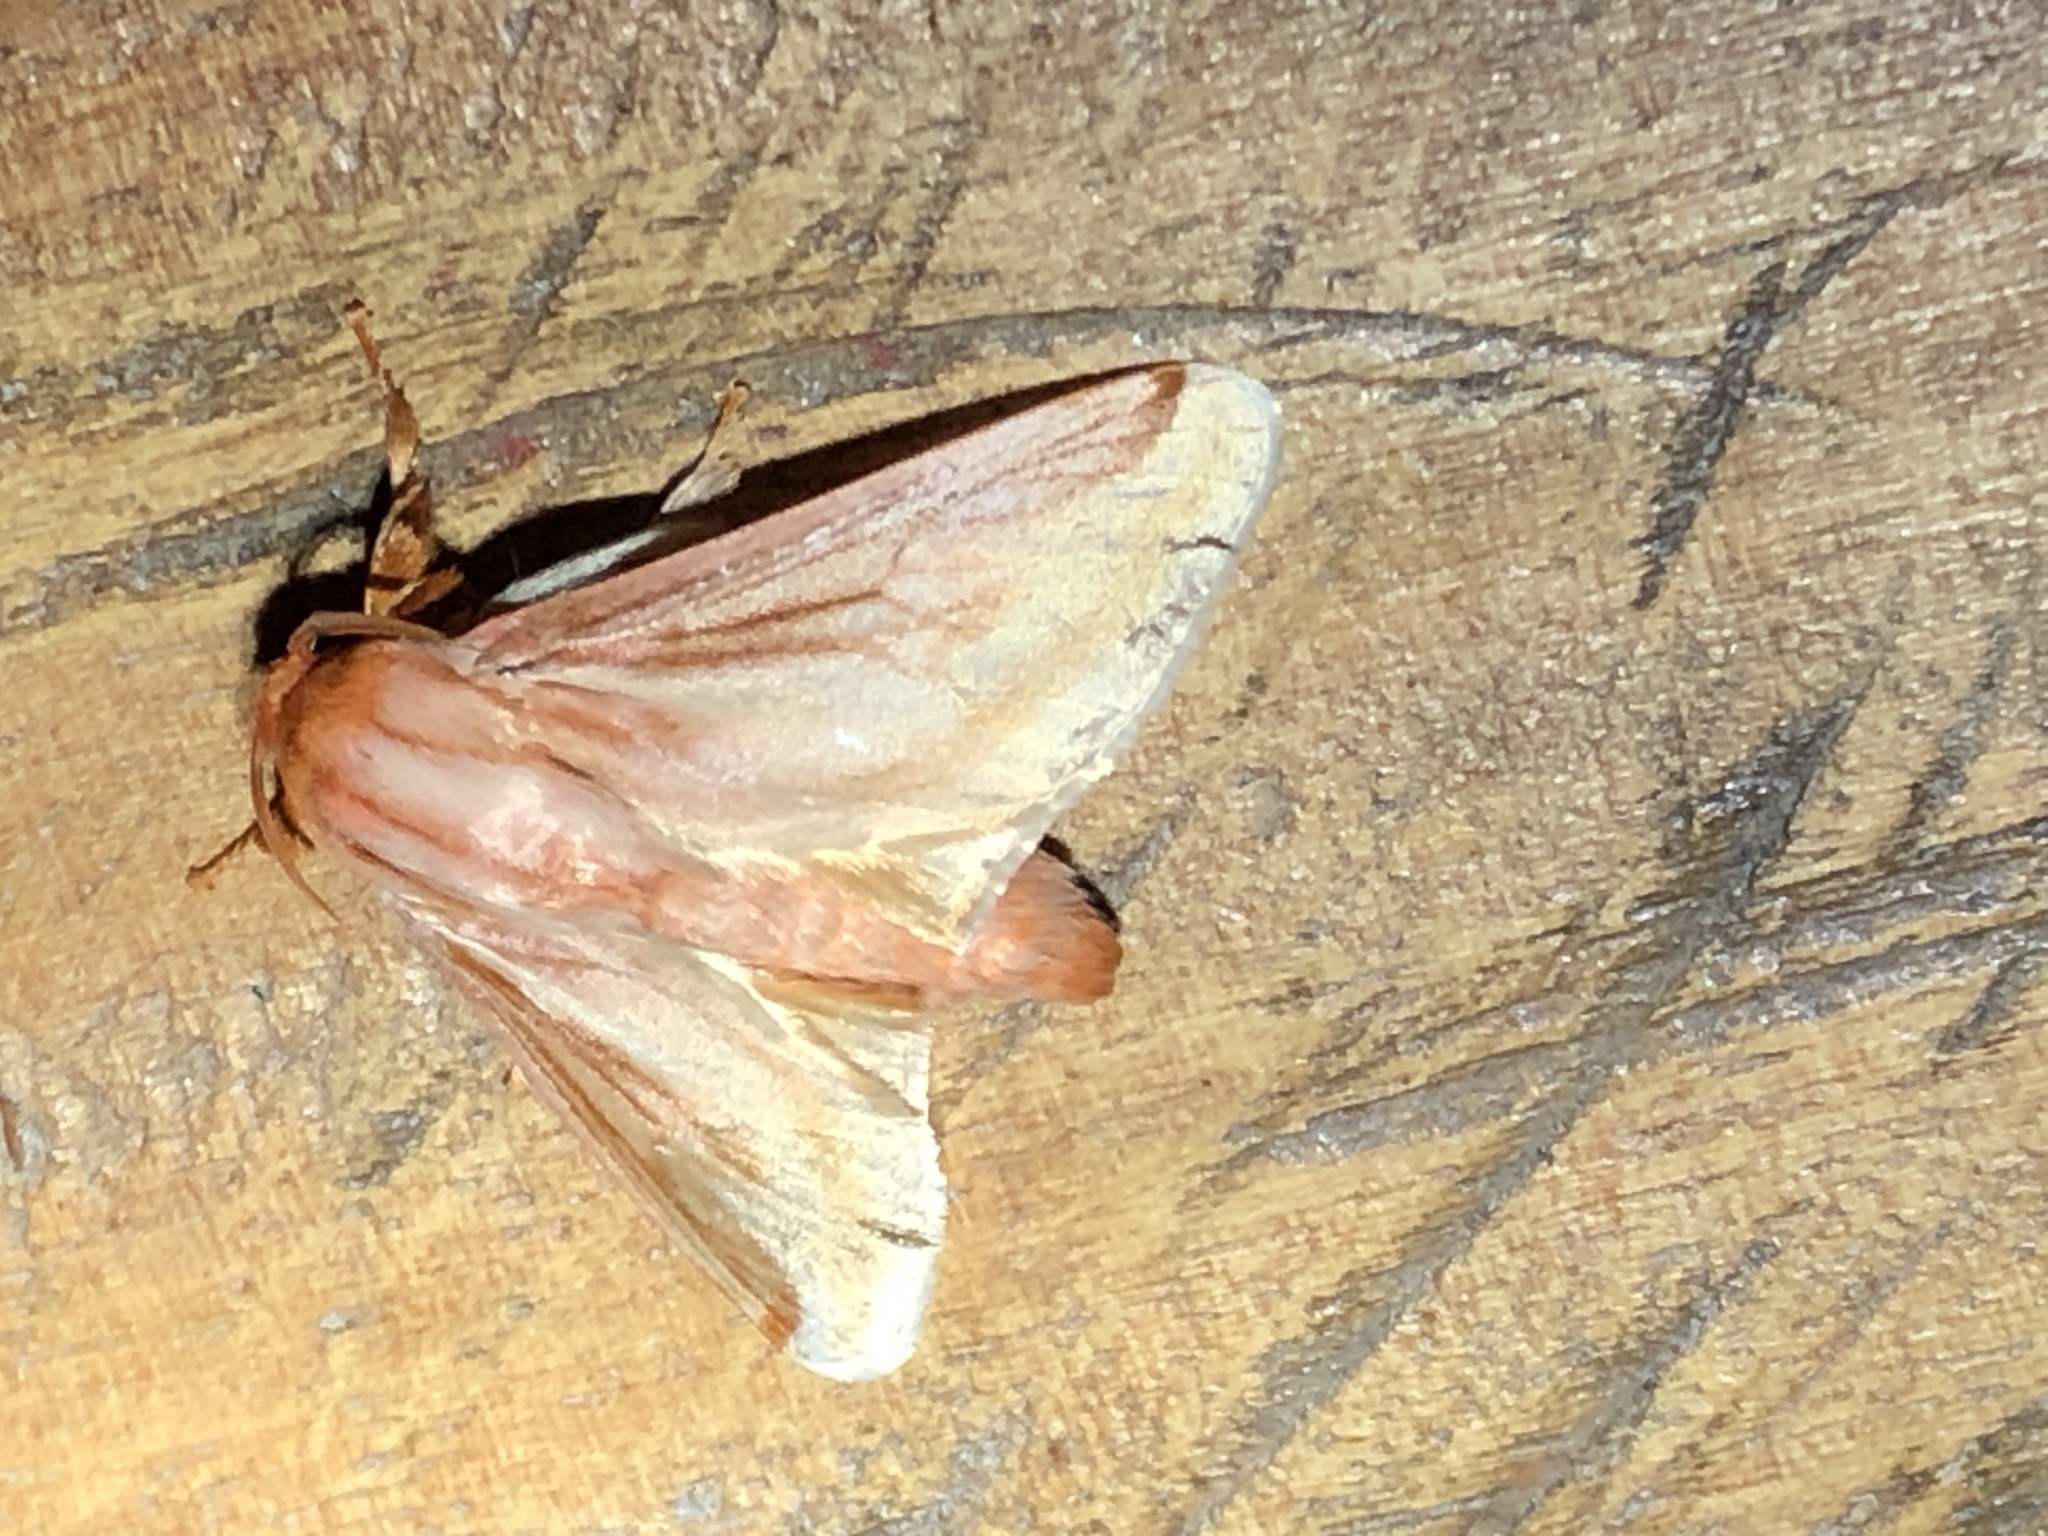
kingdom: Animalia
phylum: Arthropoda
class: Insecta
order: Lepidoptera
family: Limacodidae
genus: Perola
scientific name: Perola villosipes
